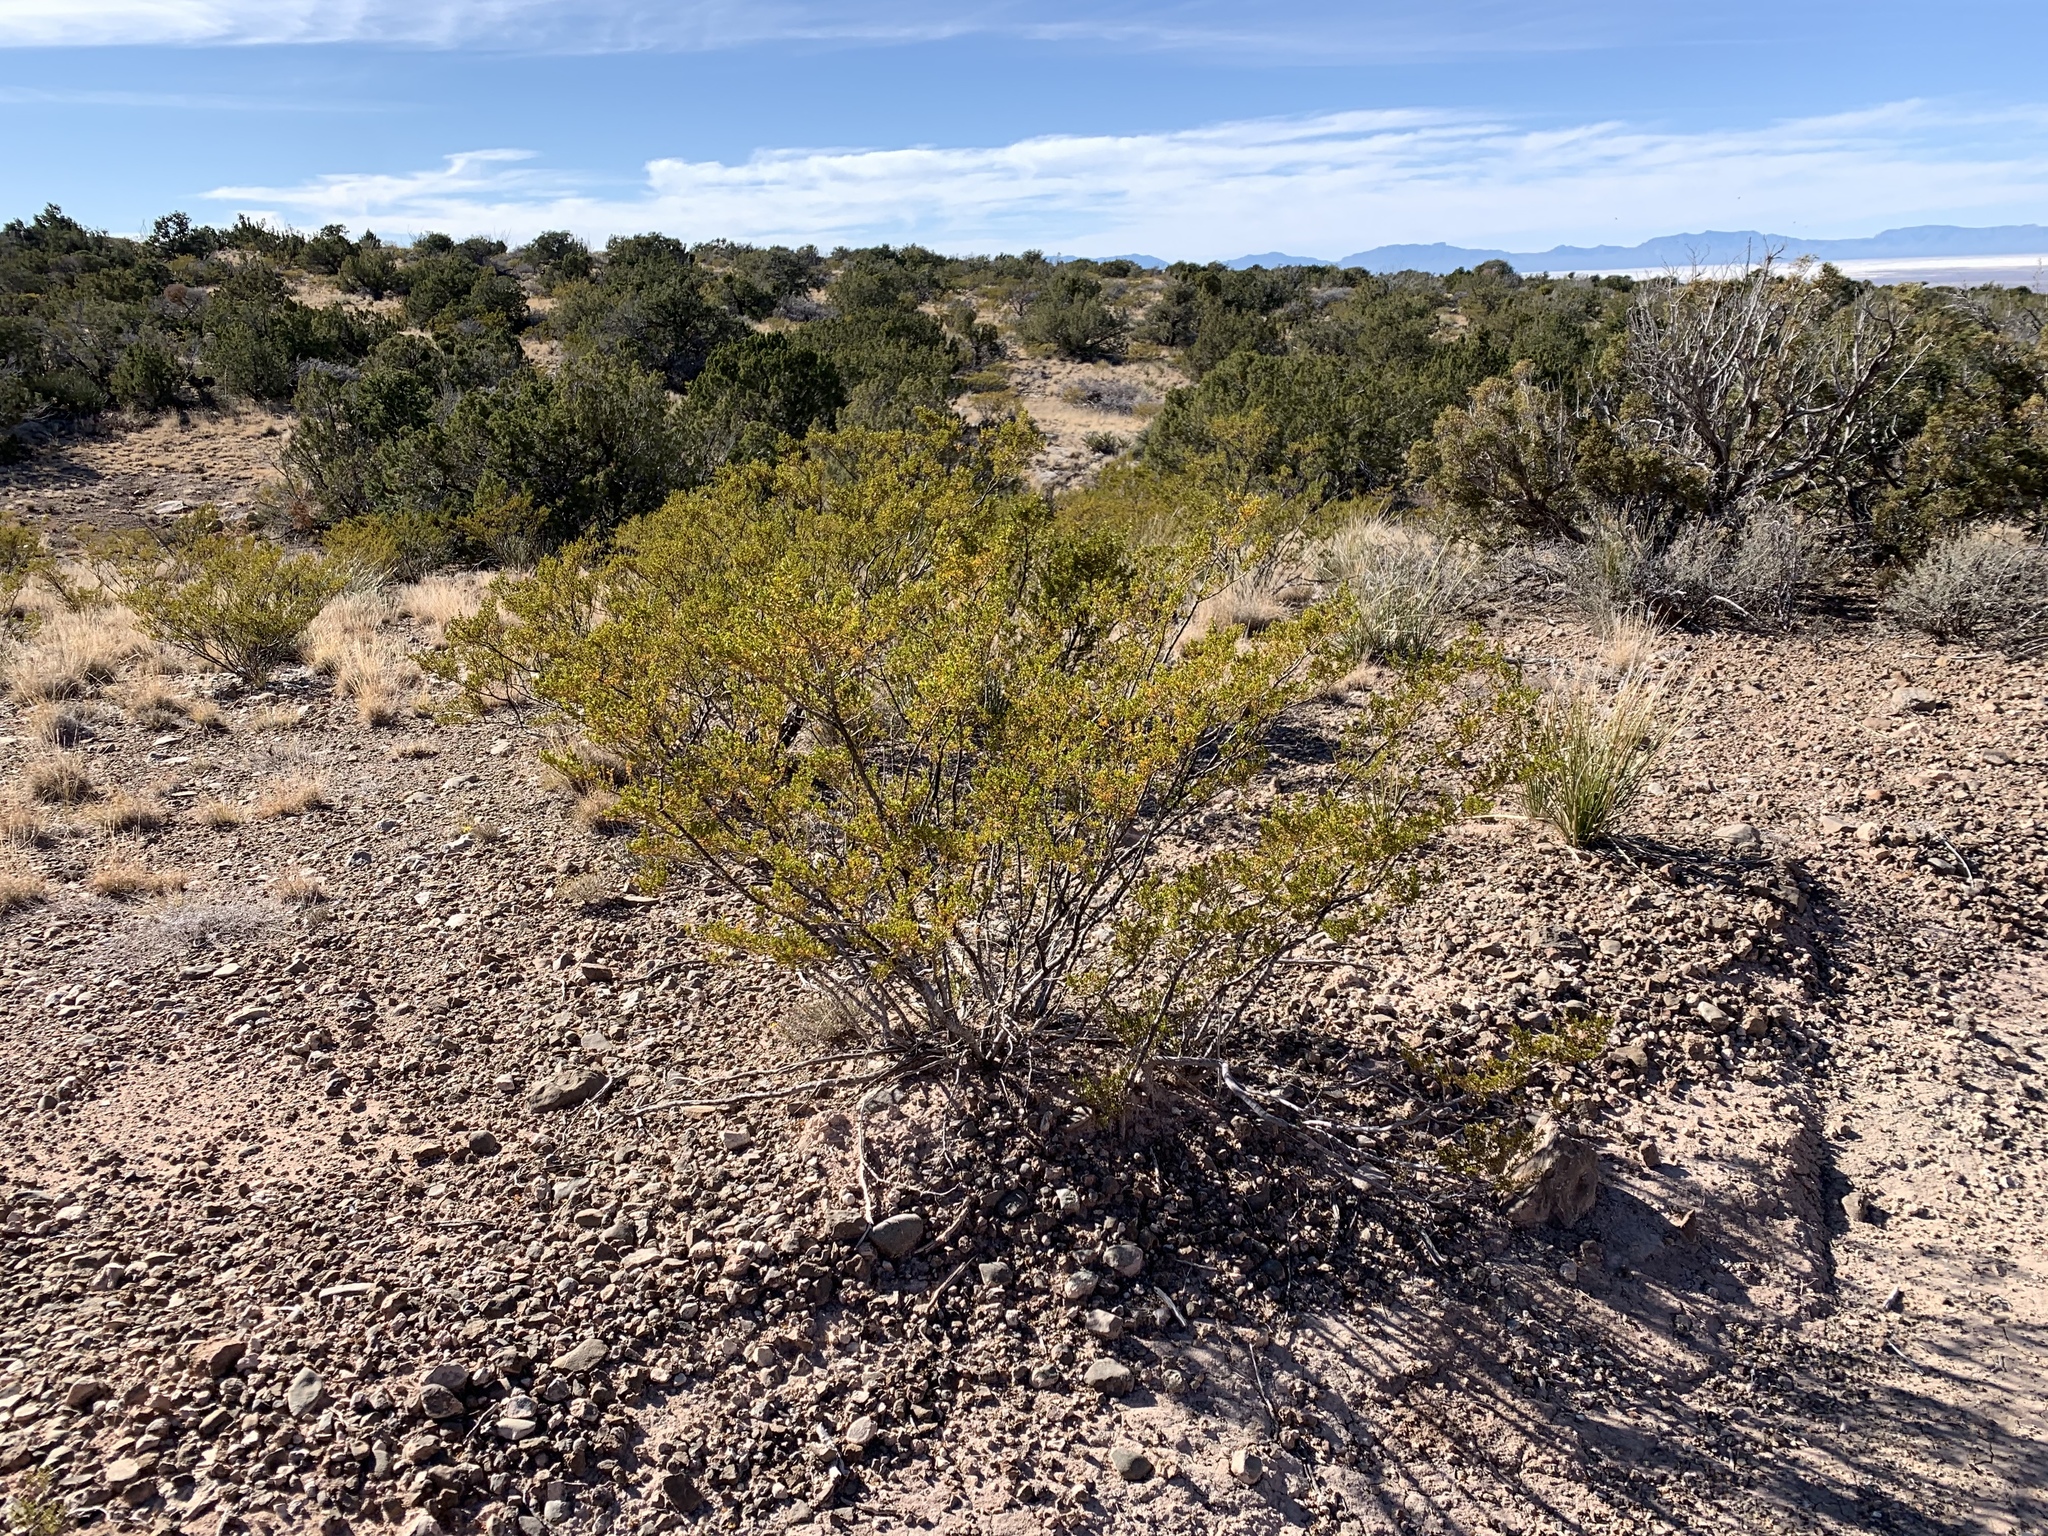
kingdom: Plantae
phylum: Tracheophyta
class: Magnoliopsida
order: Zygophyllales
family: Zygophyllaceae
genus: Larrea
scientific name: Larrea tridentata
